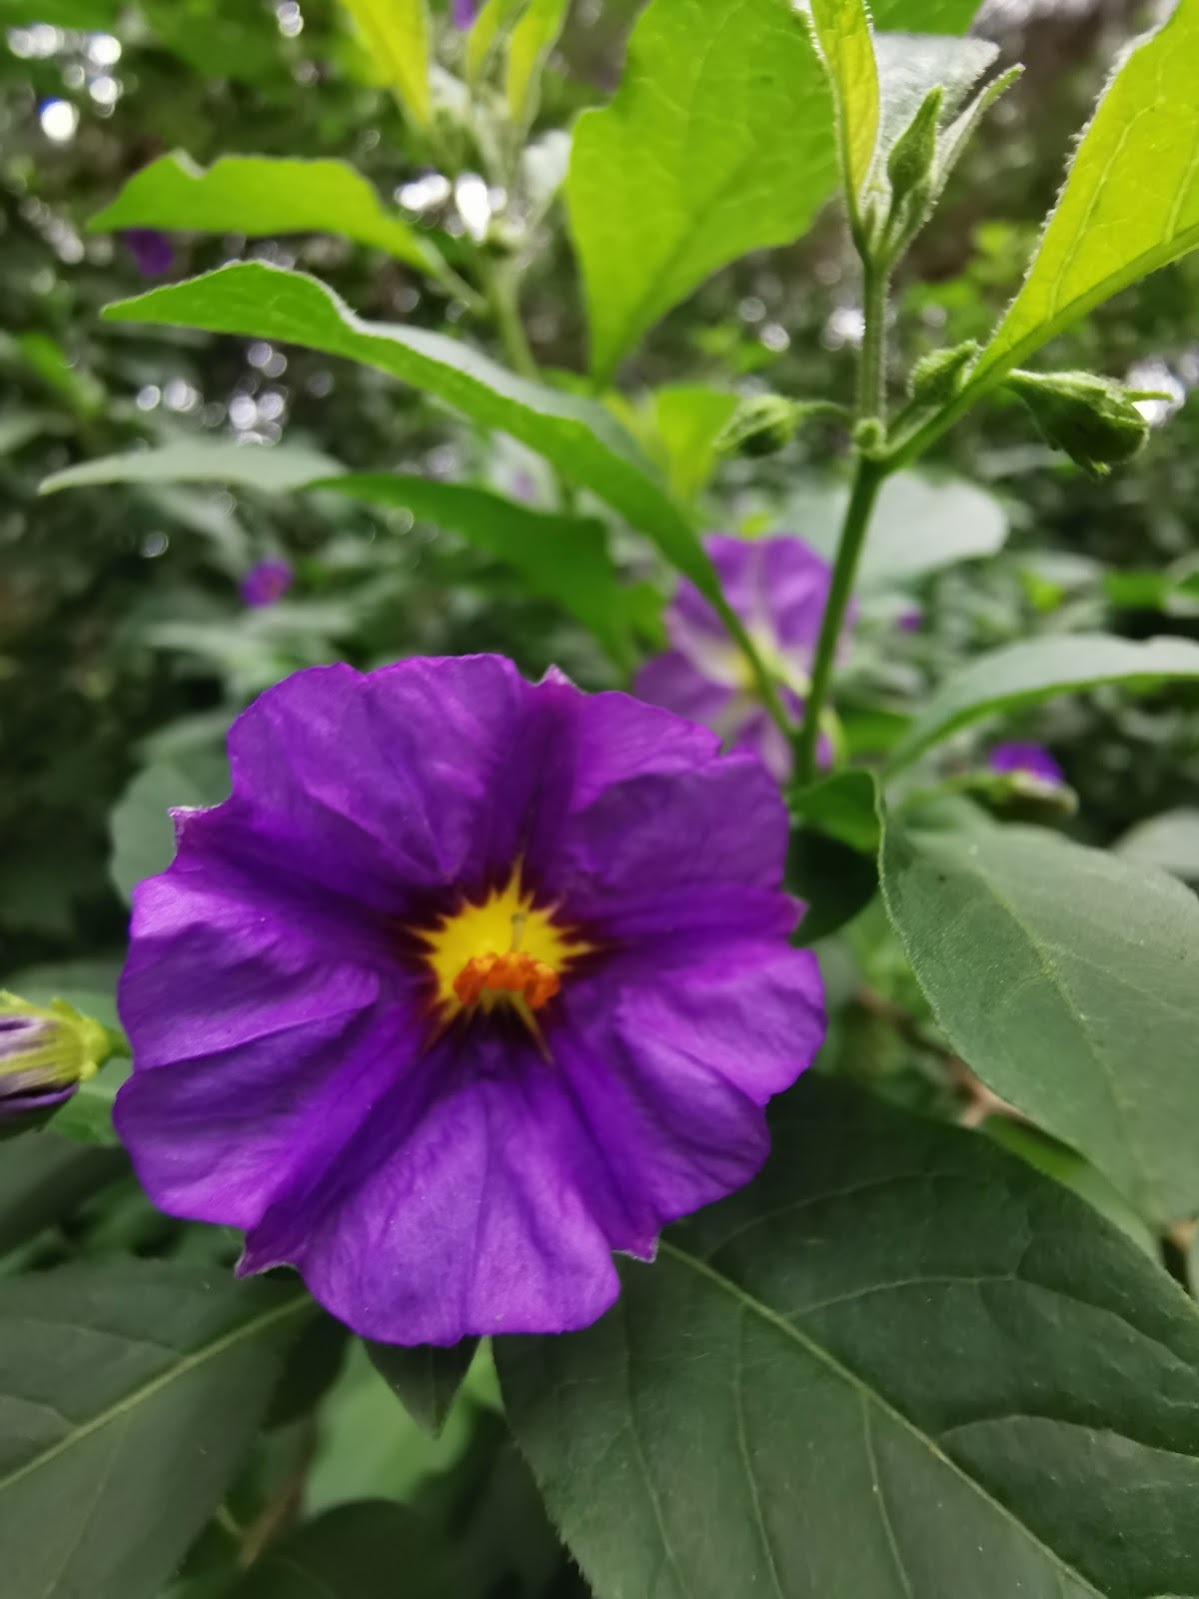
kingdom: Plantae
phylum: Tracheophyta
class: Magnoliopsida
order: Solanales
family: Solanaceae
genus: Lycianthes
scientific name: Lycianthes rantonnetii
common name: Blue potatobush
